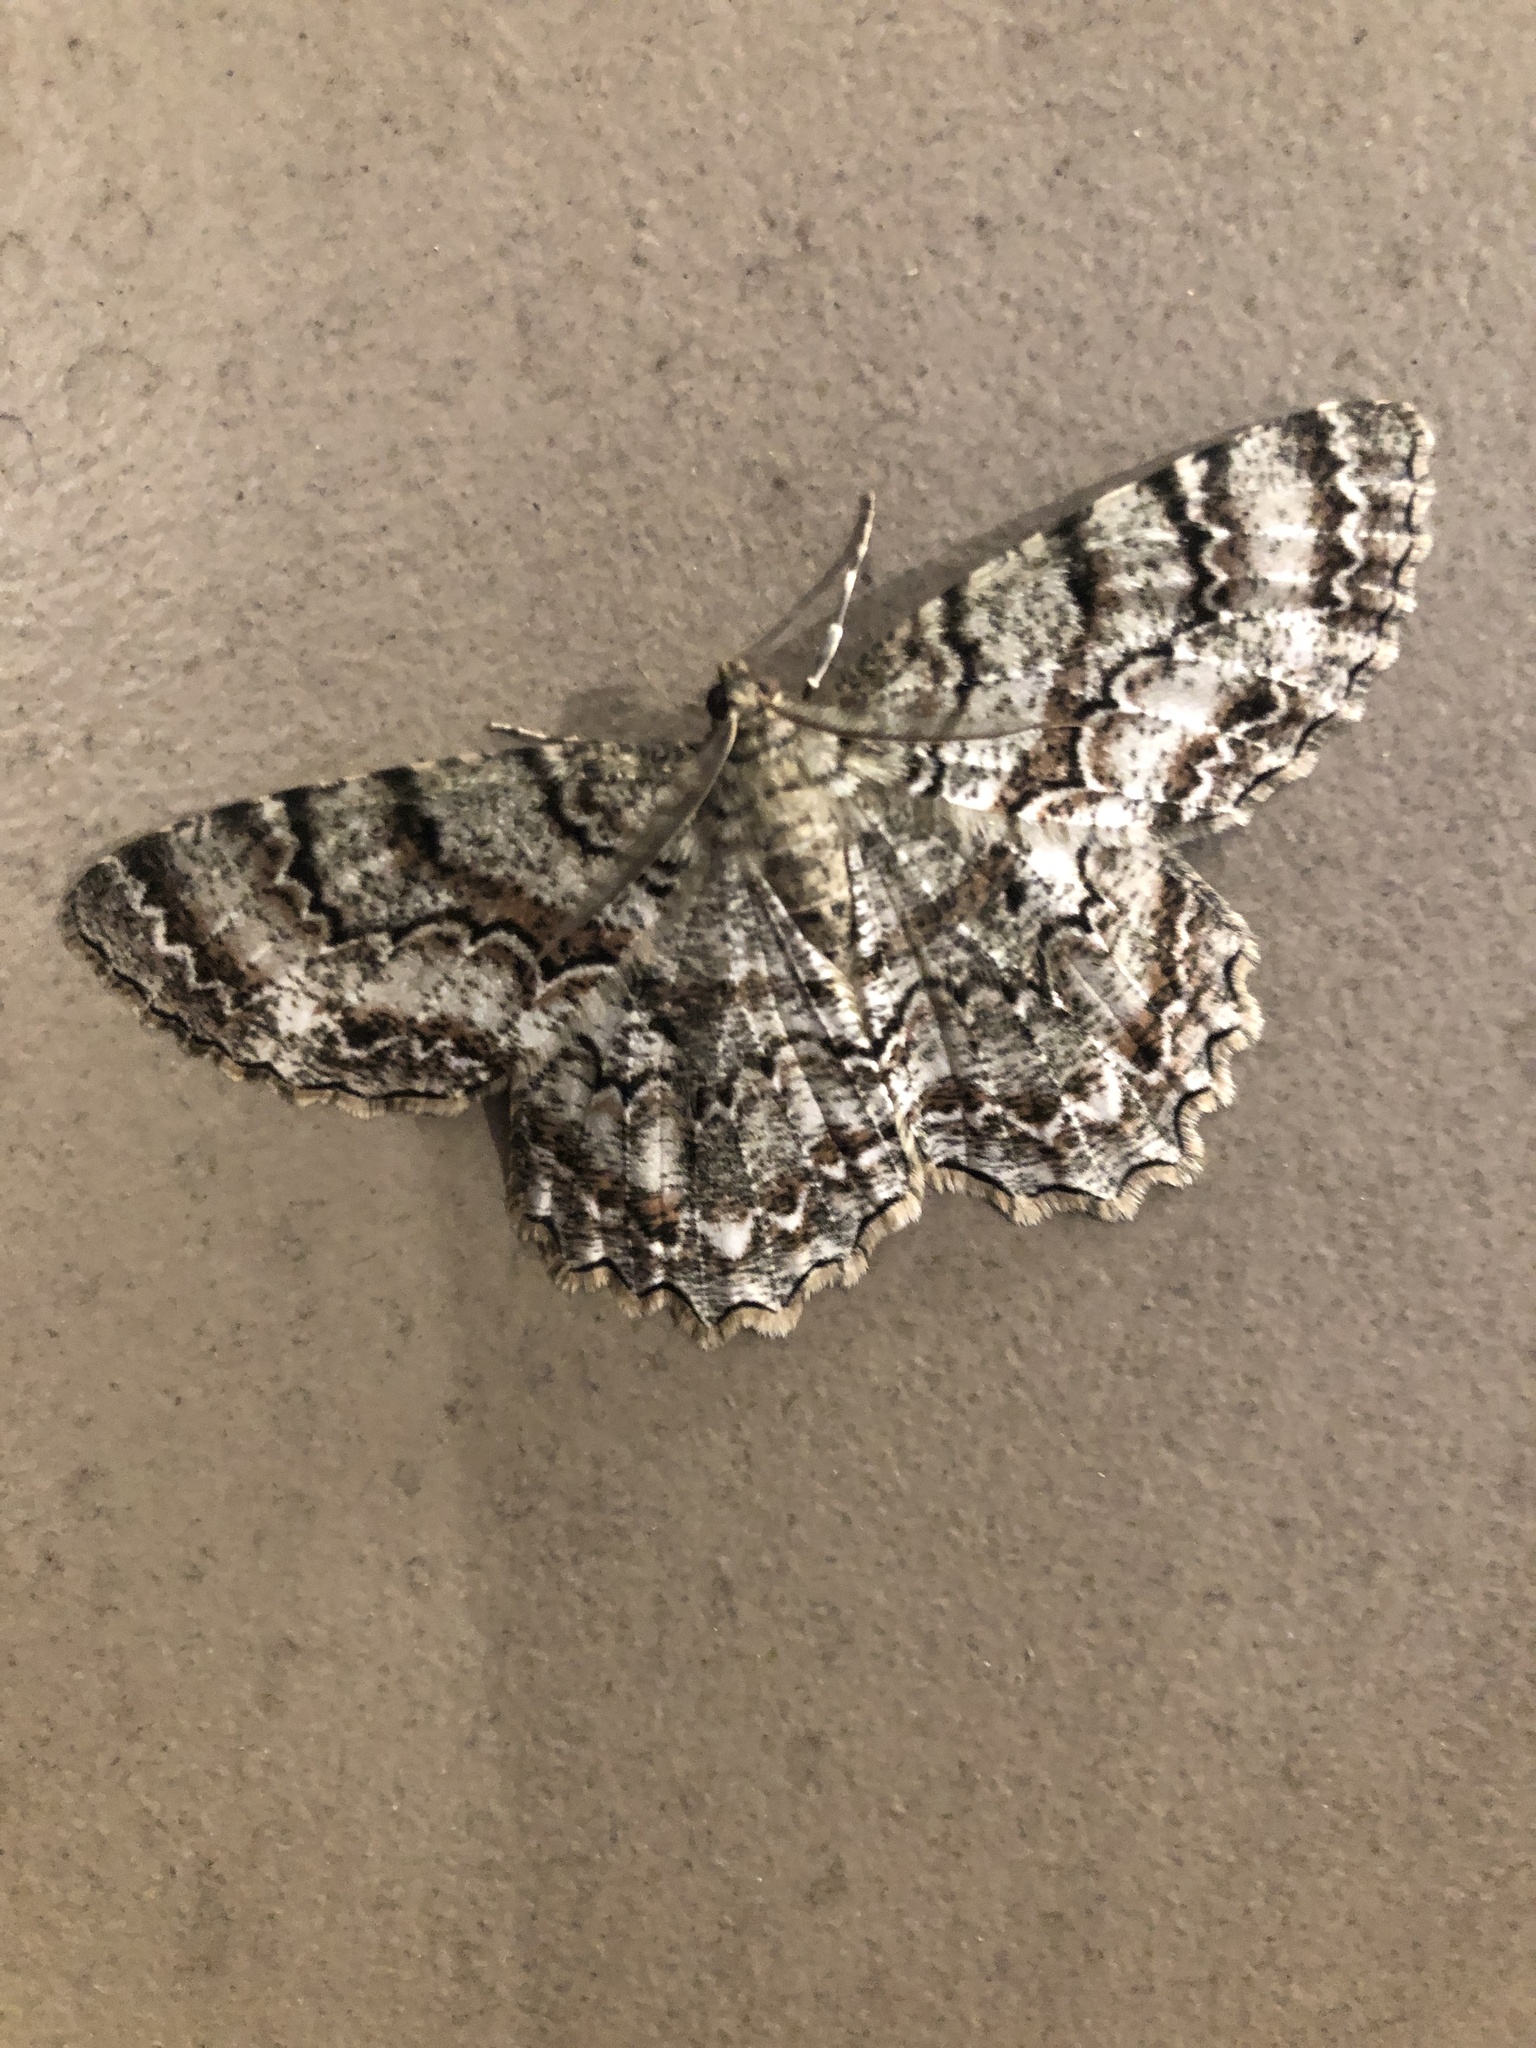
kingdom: Animalia
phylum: Arthropoda
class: Insecta
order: Lepidoptera
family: Geometridae
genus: Epimecis
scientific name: Epimecis hortaria
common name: Tulip-tree beauty
